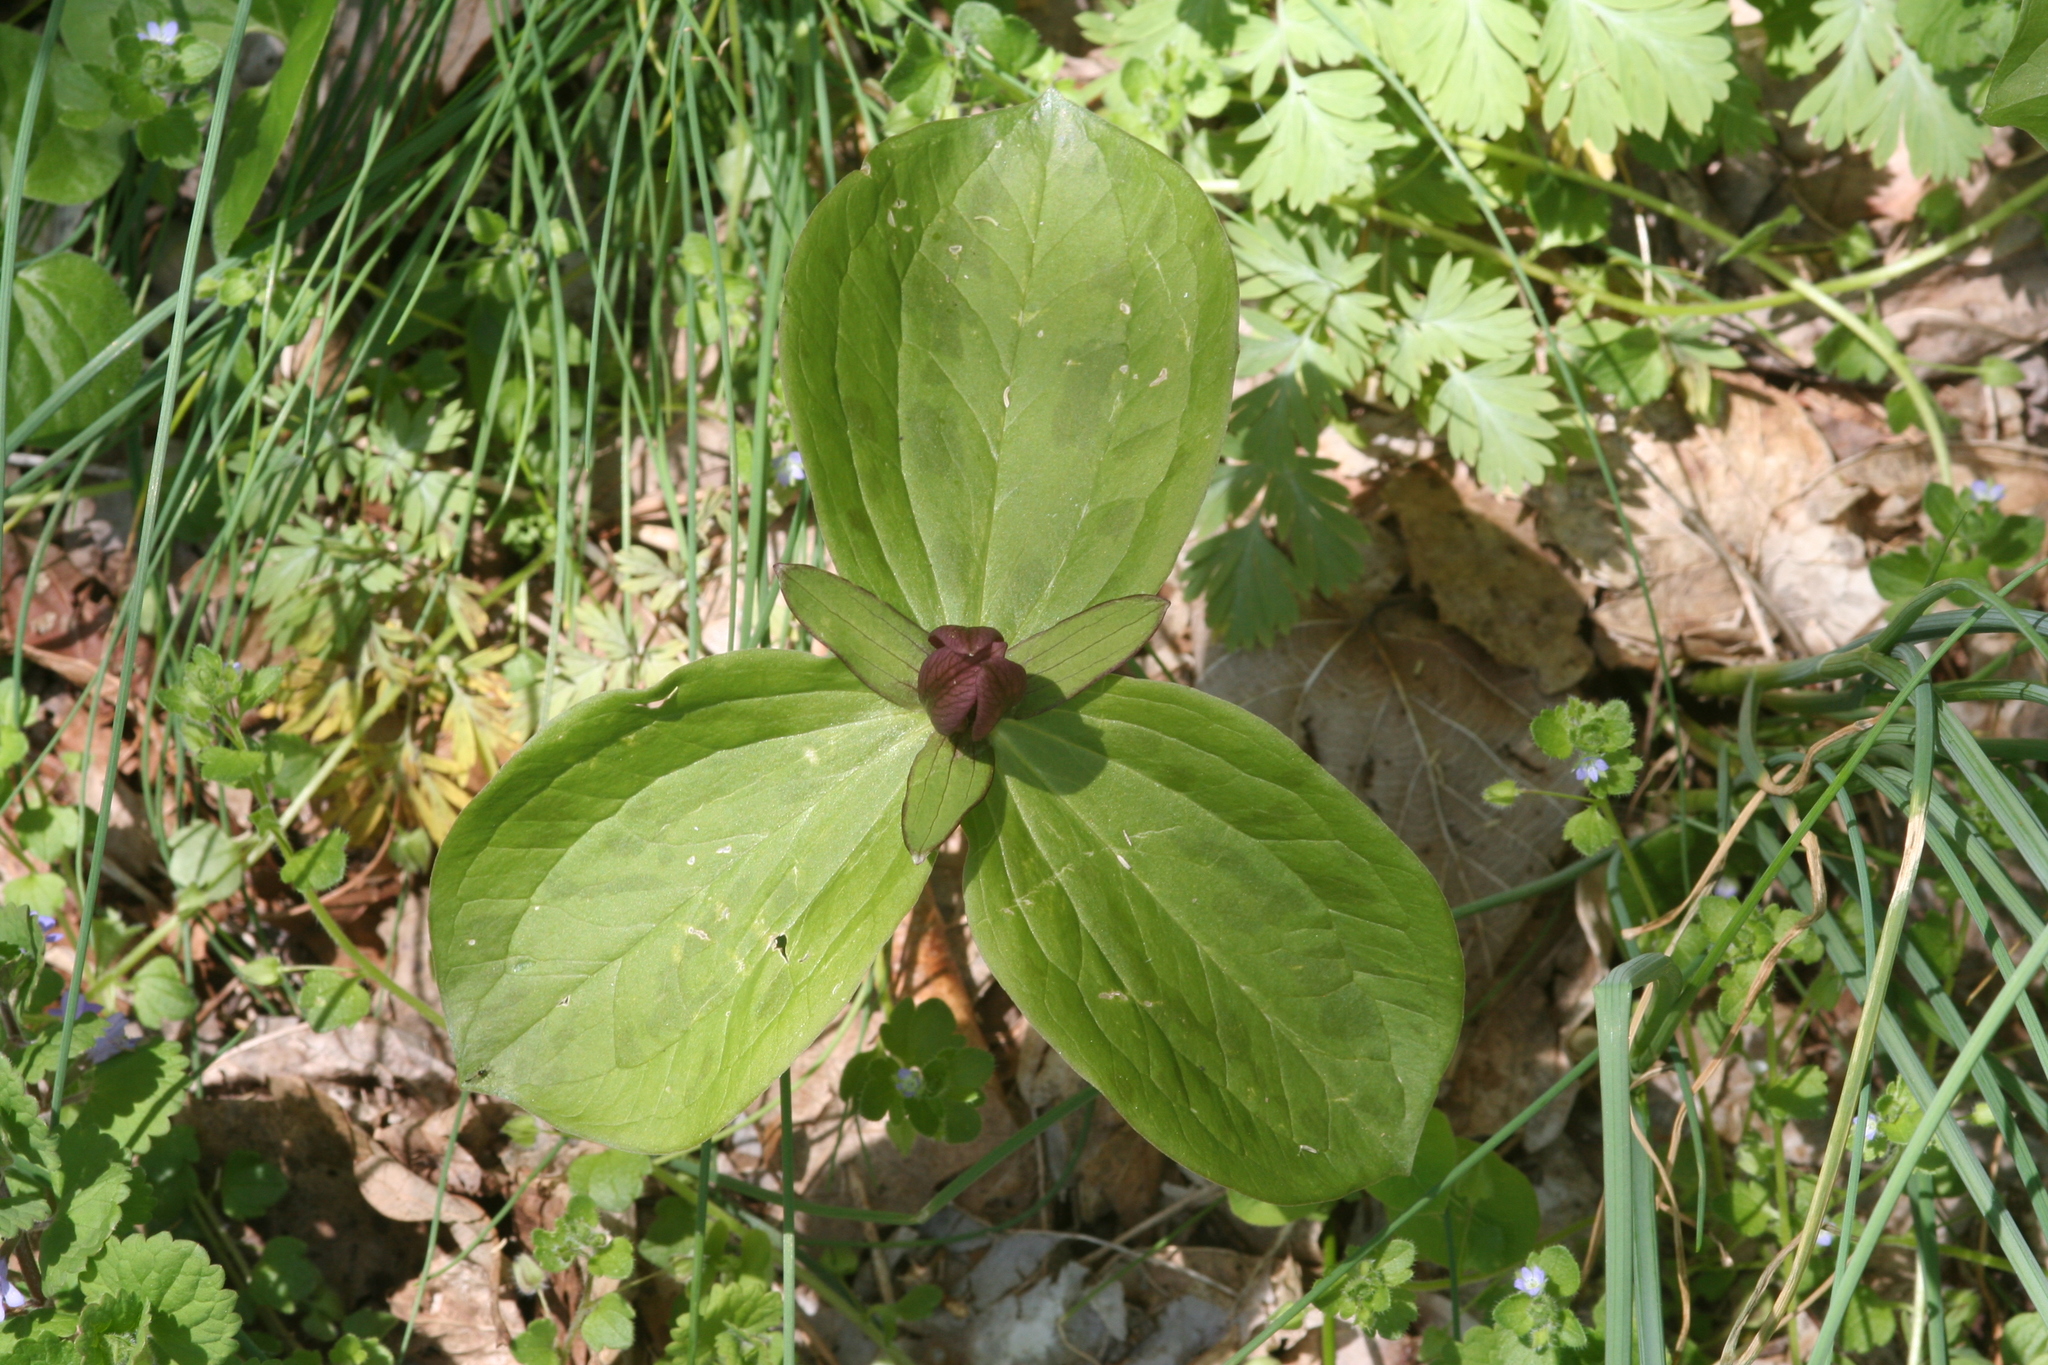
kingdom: Plantae
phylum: Tracheophyta
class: Liliopsida
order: Liliales
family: Melanthiaceae
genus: Trillium
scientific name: Trillium sessile
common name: Sessile trillium
